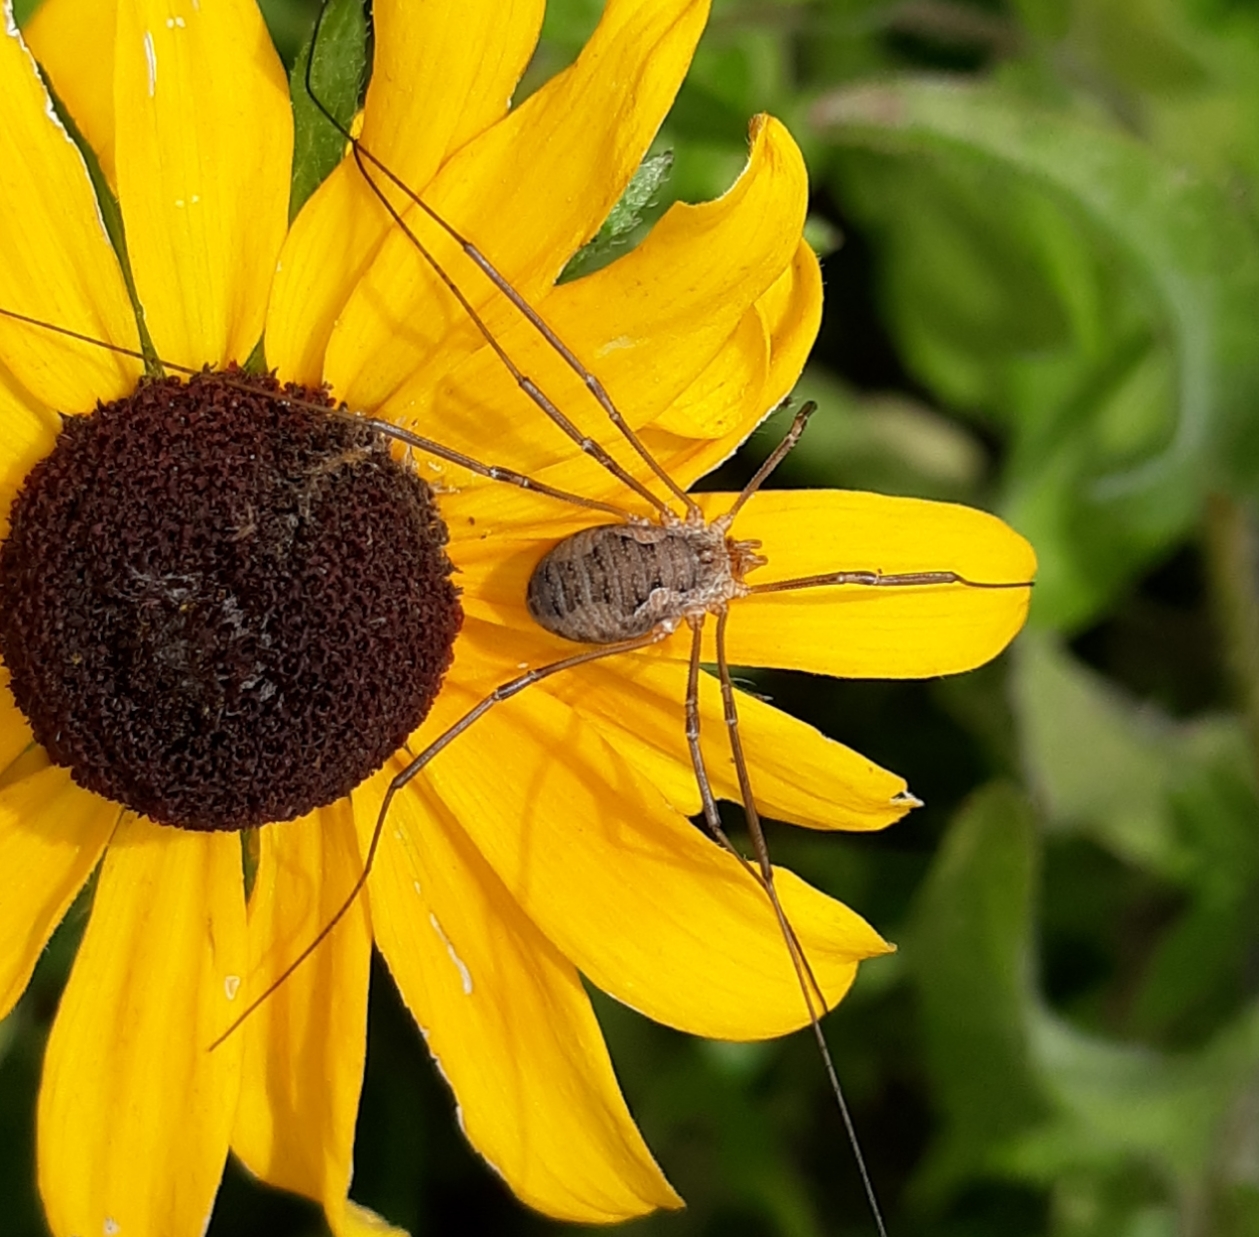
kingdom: Animalia
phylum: Arthropoda
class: Arachnida
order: Opiliones
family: Phalangiidae
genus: Phalangium
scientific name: Phalangium opilio
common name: Daddy longleg
